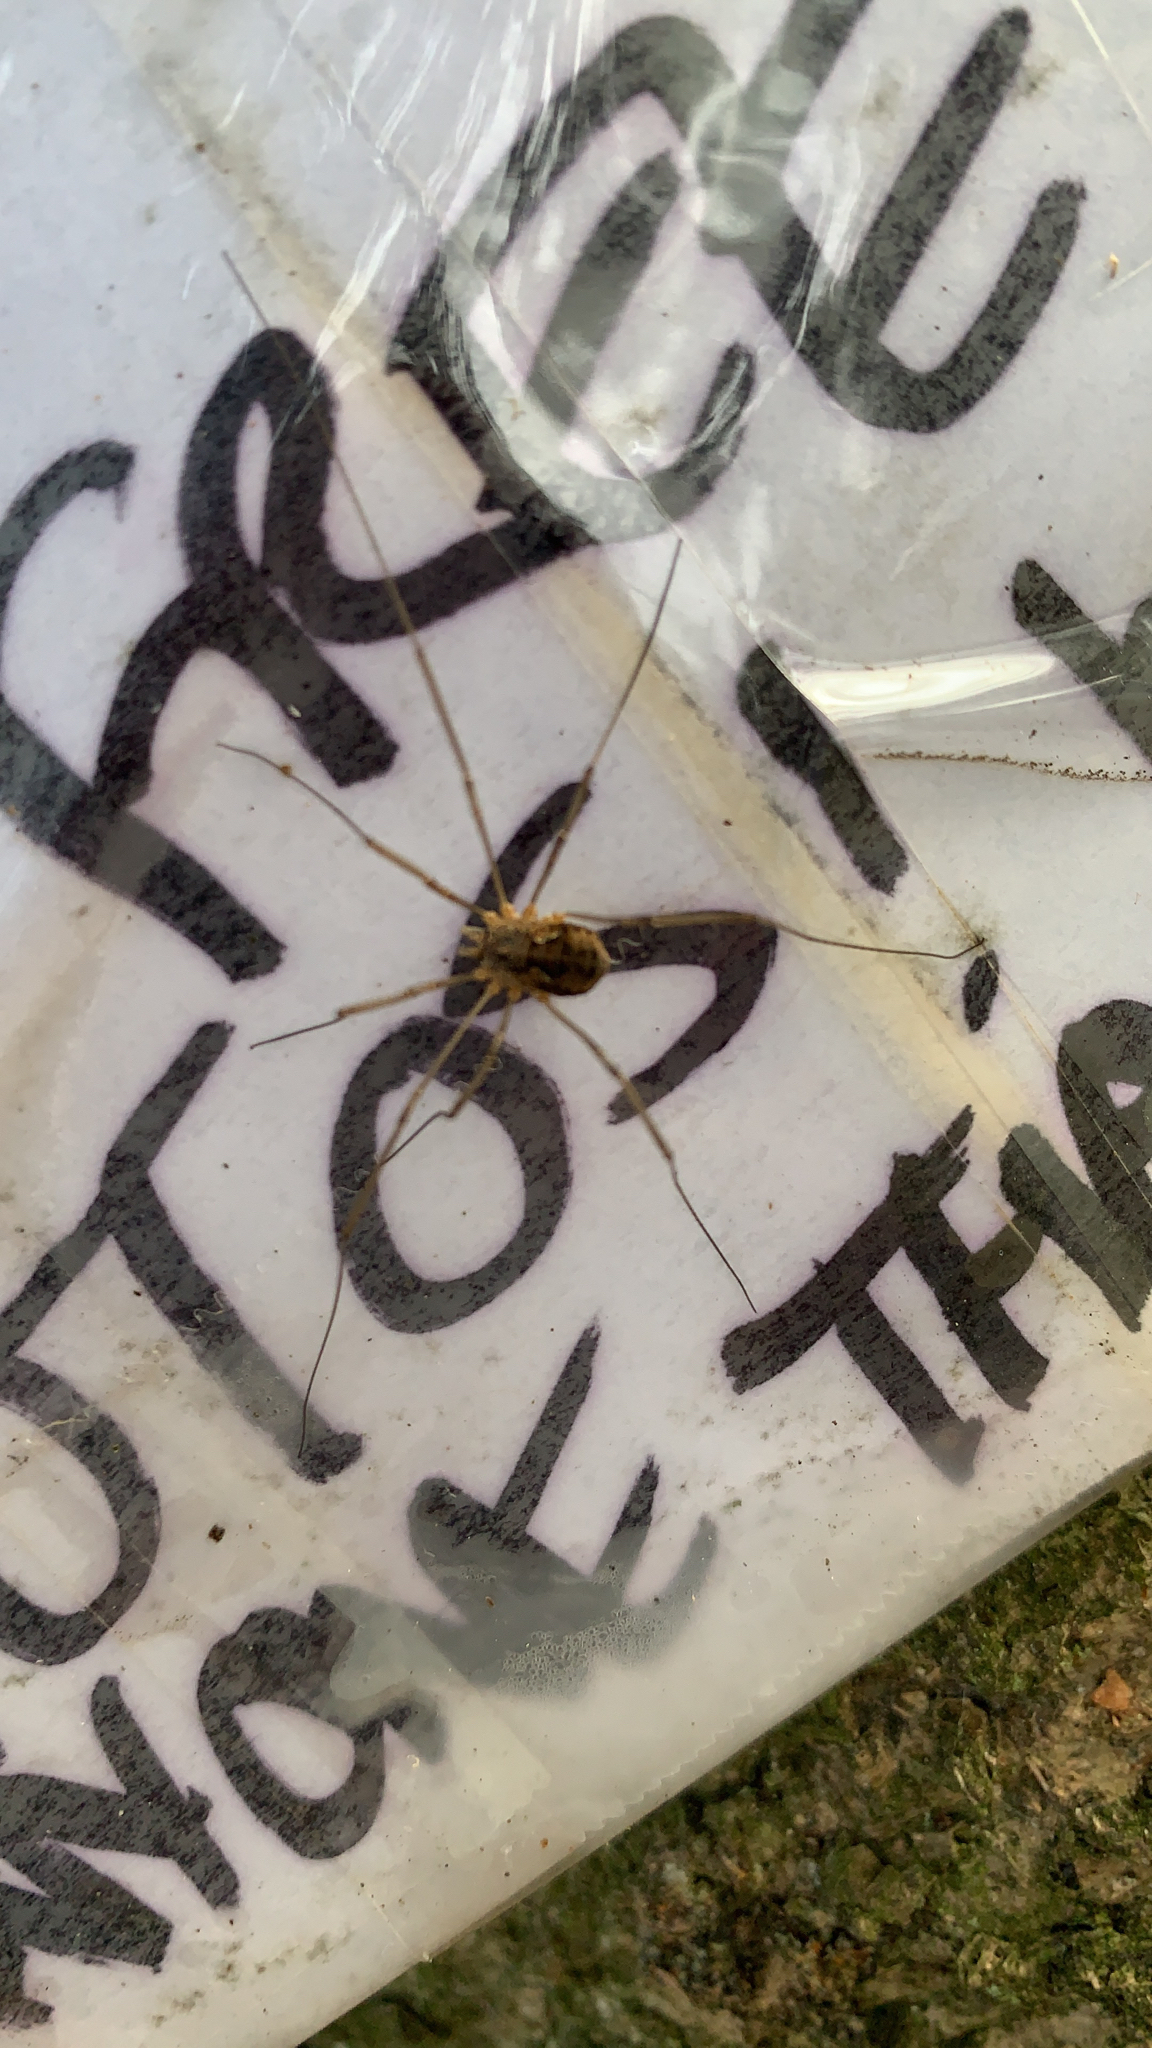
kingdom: Animalia
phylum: Arthropoda
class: Arachnida
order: Opiliones
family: Phalangiidae
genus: Phalangium
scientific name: Phalangium opilio
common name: Daddy longleg
